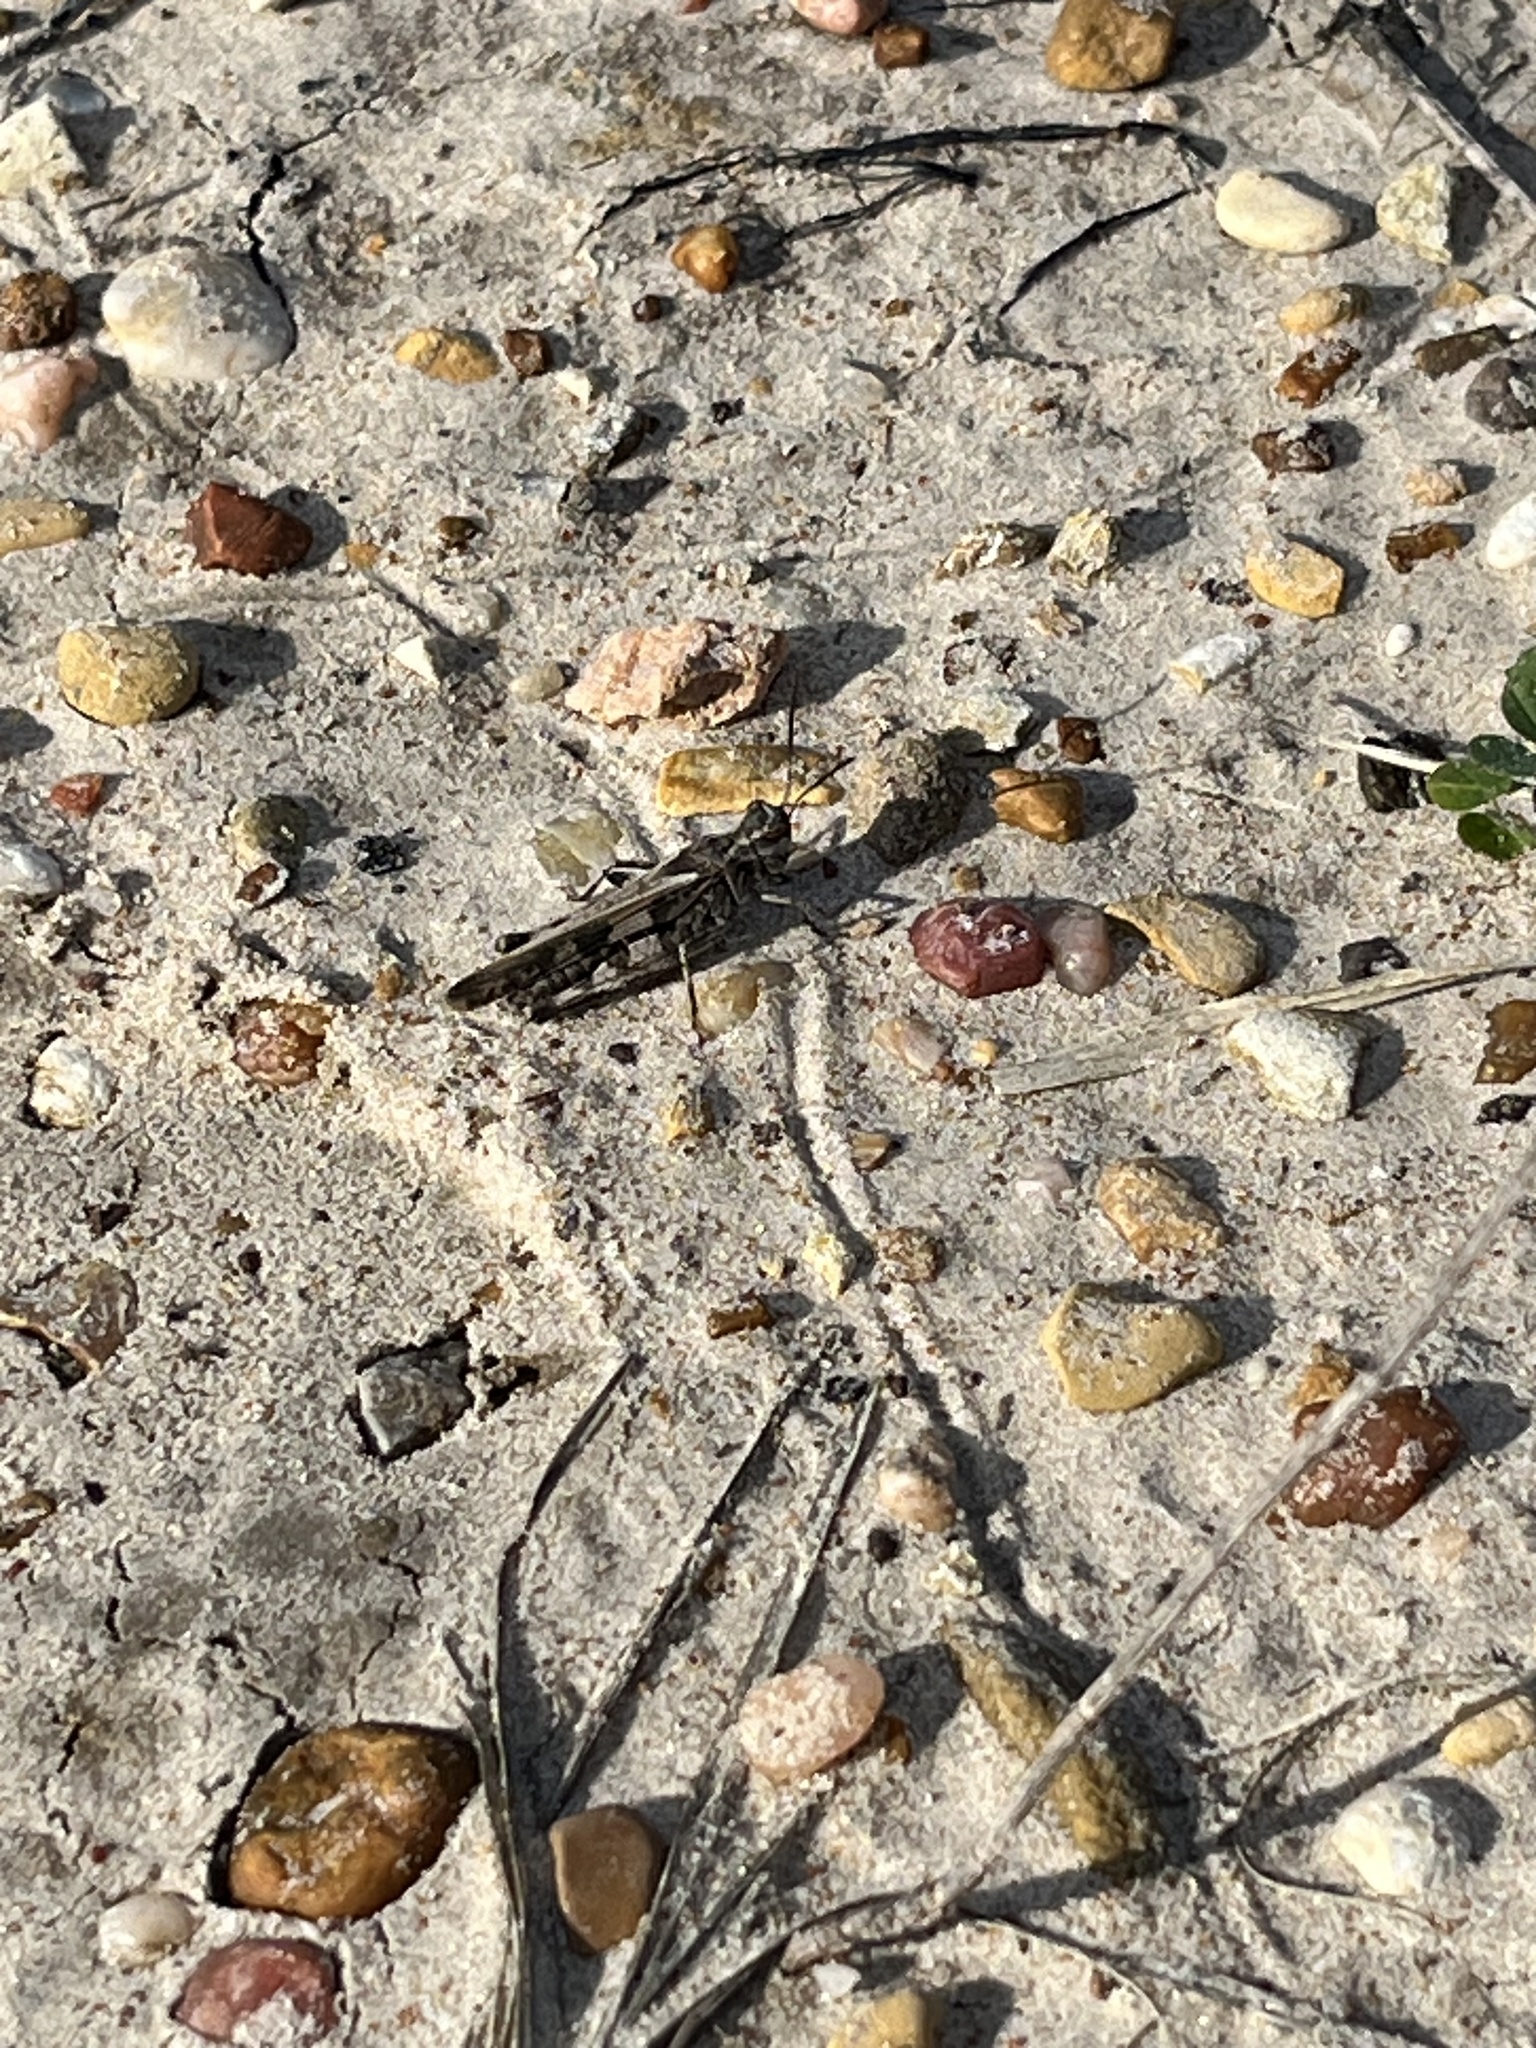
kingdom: Animalia
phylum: Arthropoda
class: Insecta
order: Orthoptera
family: Acrididae
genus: Trachyrhachys
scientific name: Trachyrhachys kiowa
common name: Kiowa grasshopper
